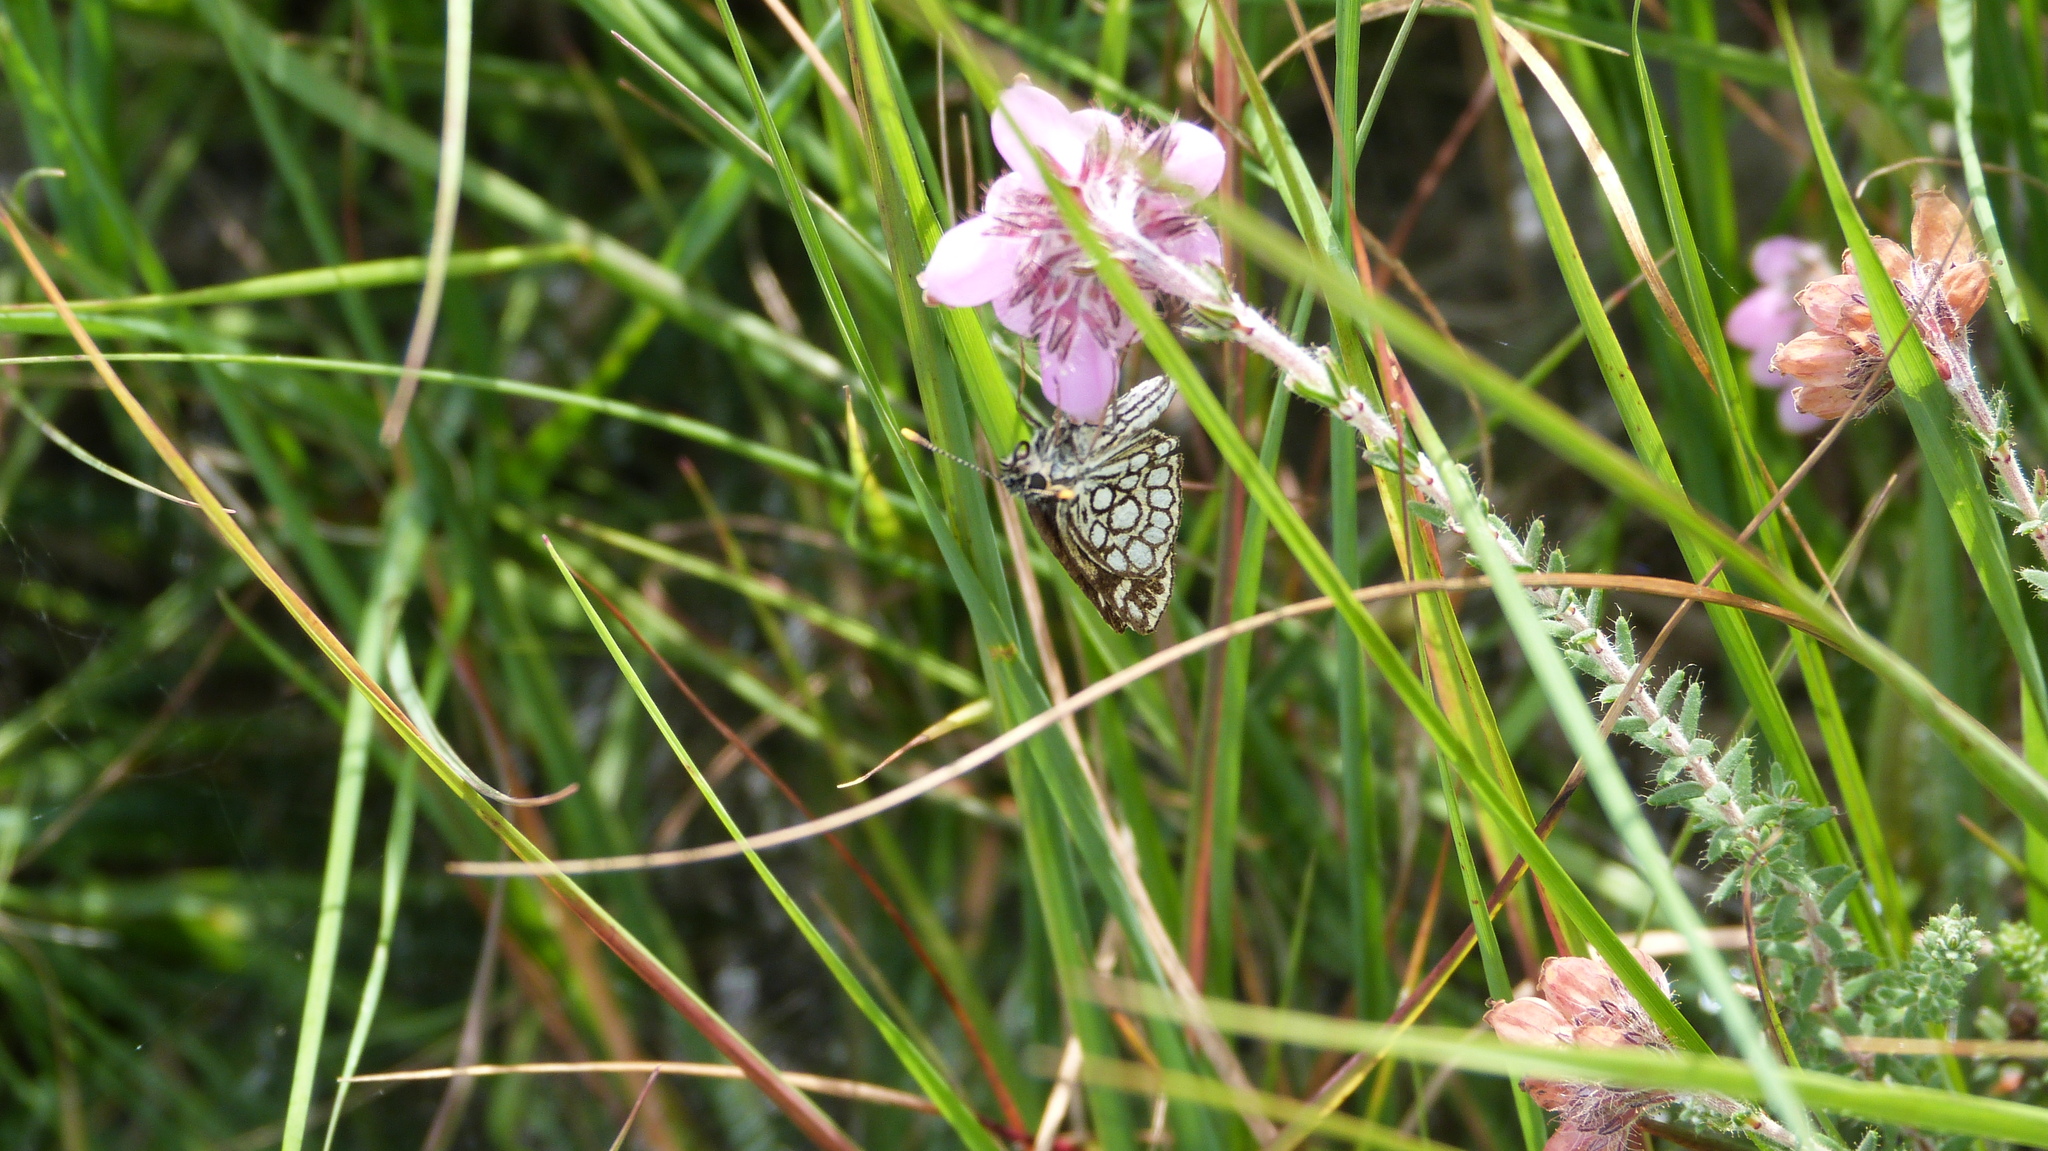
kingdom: Animalia
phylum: Arthropoda
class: Insecta
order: Lepidoptera
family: Hesperiidae
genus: Heteropterus
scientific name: Heteropterus morpheus
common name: Large chequered skipper
